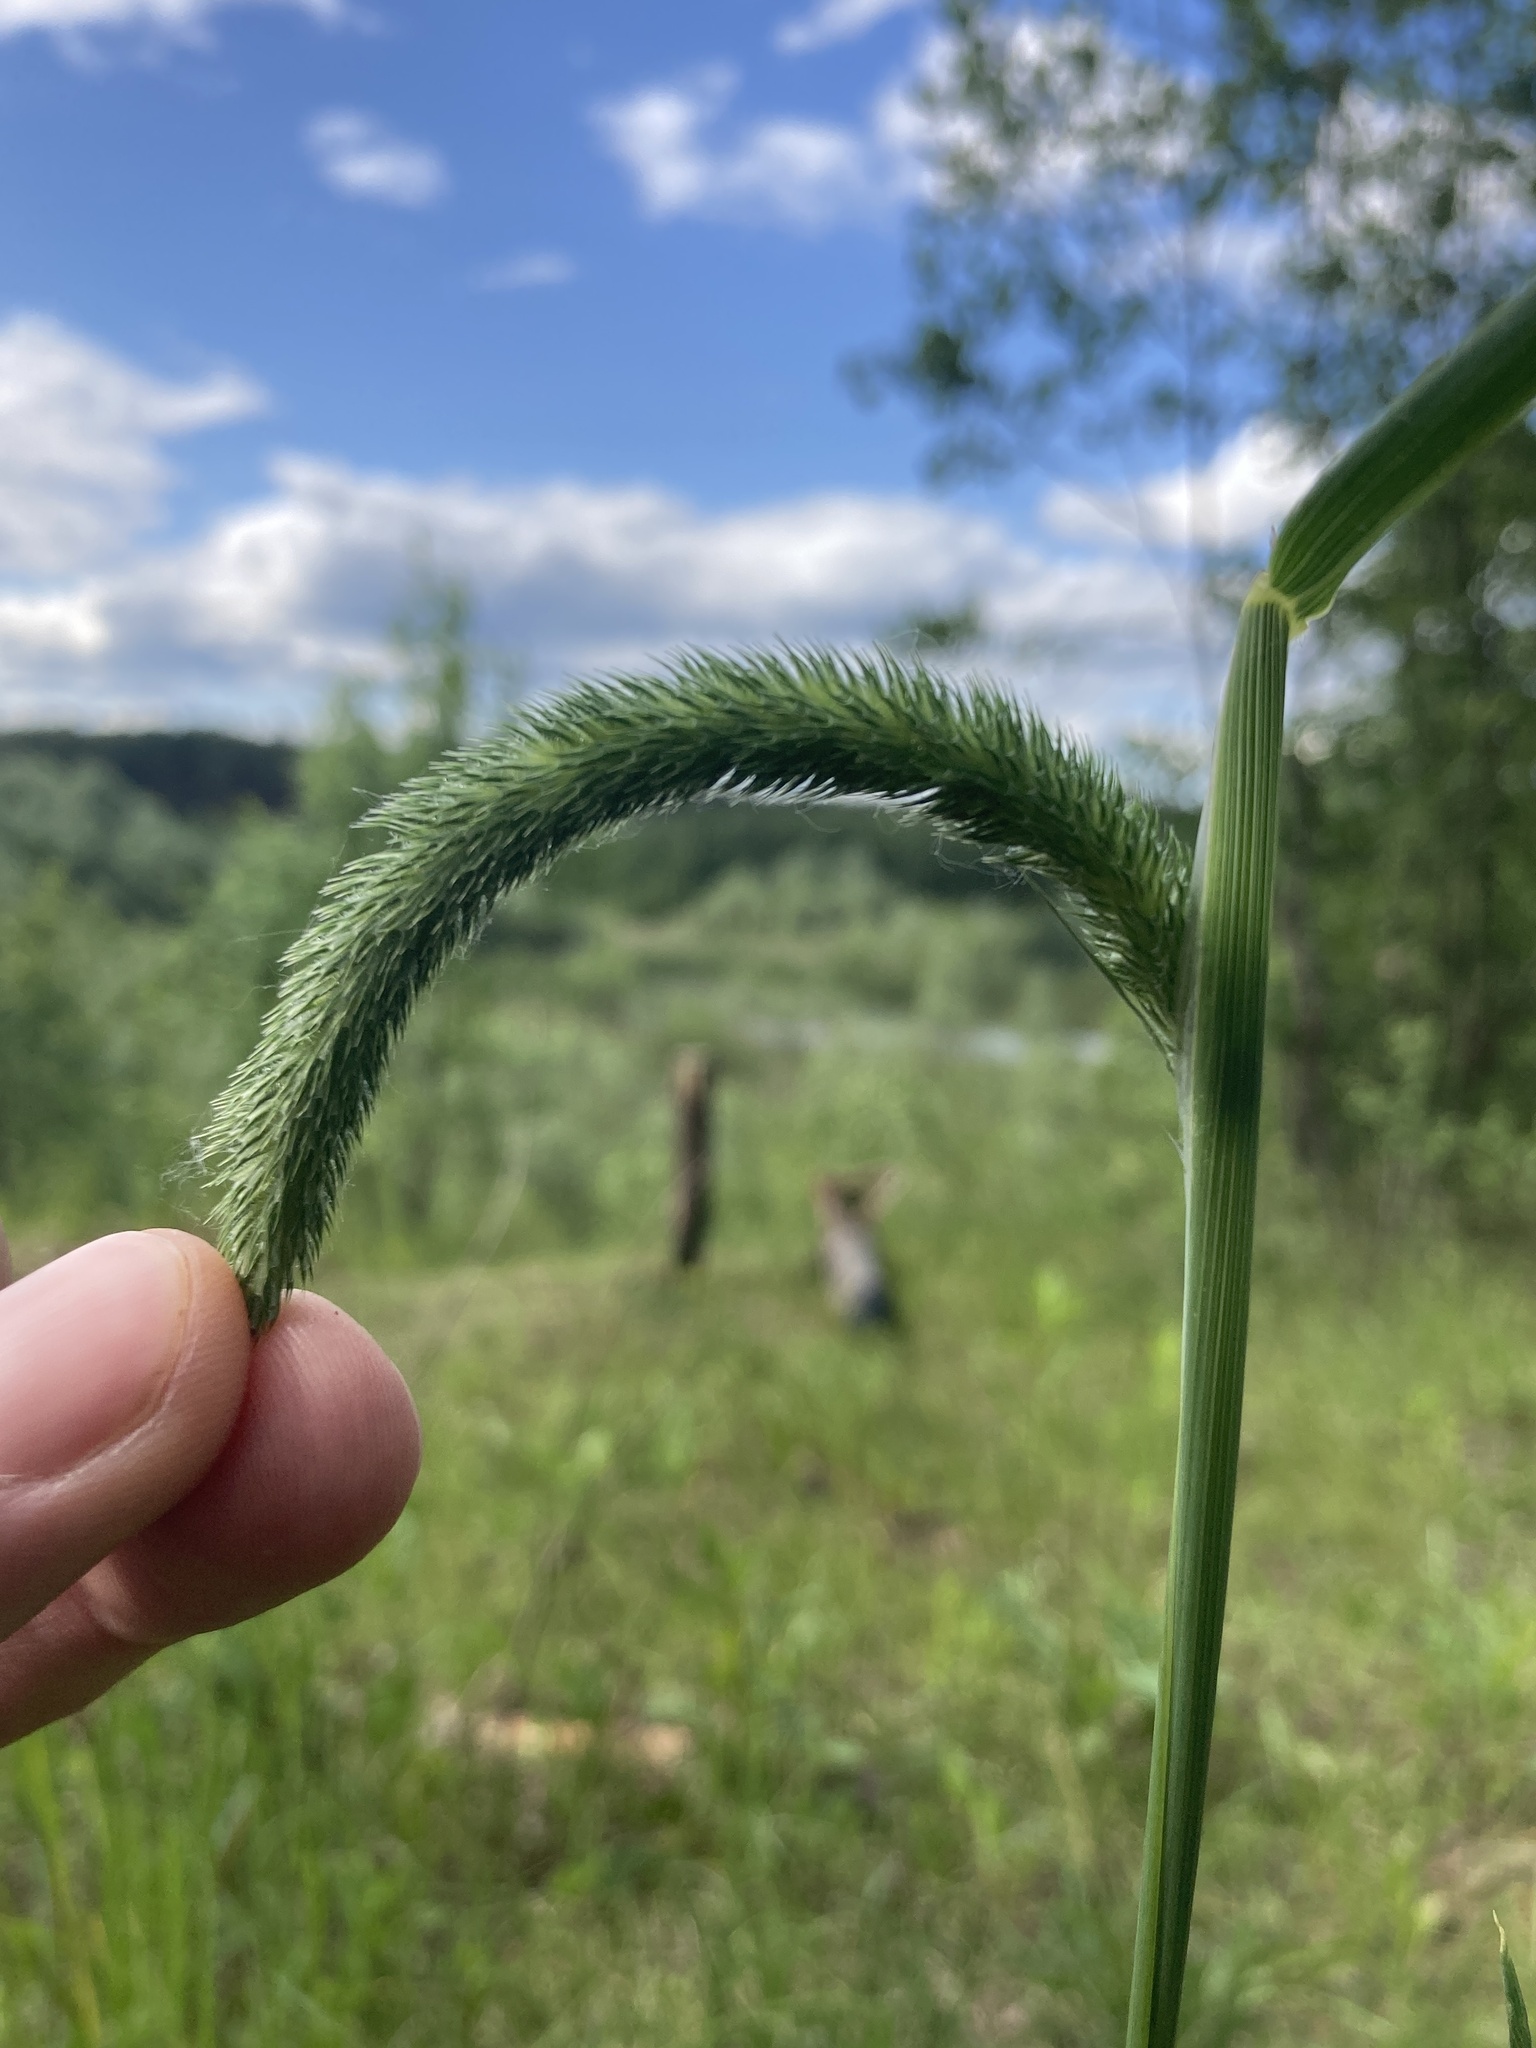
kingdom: Plantae
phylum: Tracheophyta
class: Liliopsida
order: Poales
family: Poaceae
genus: Phleum
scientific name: Phleum pratense
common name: Timothy grass
